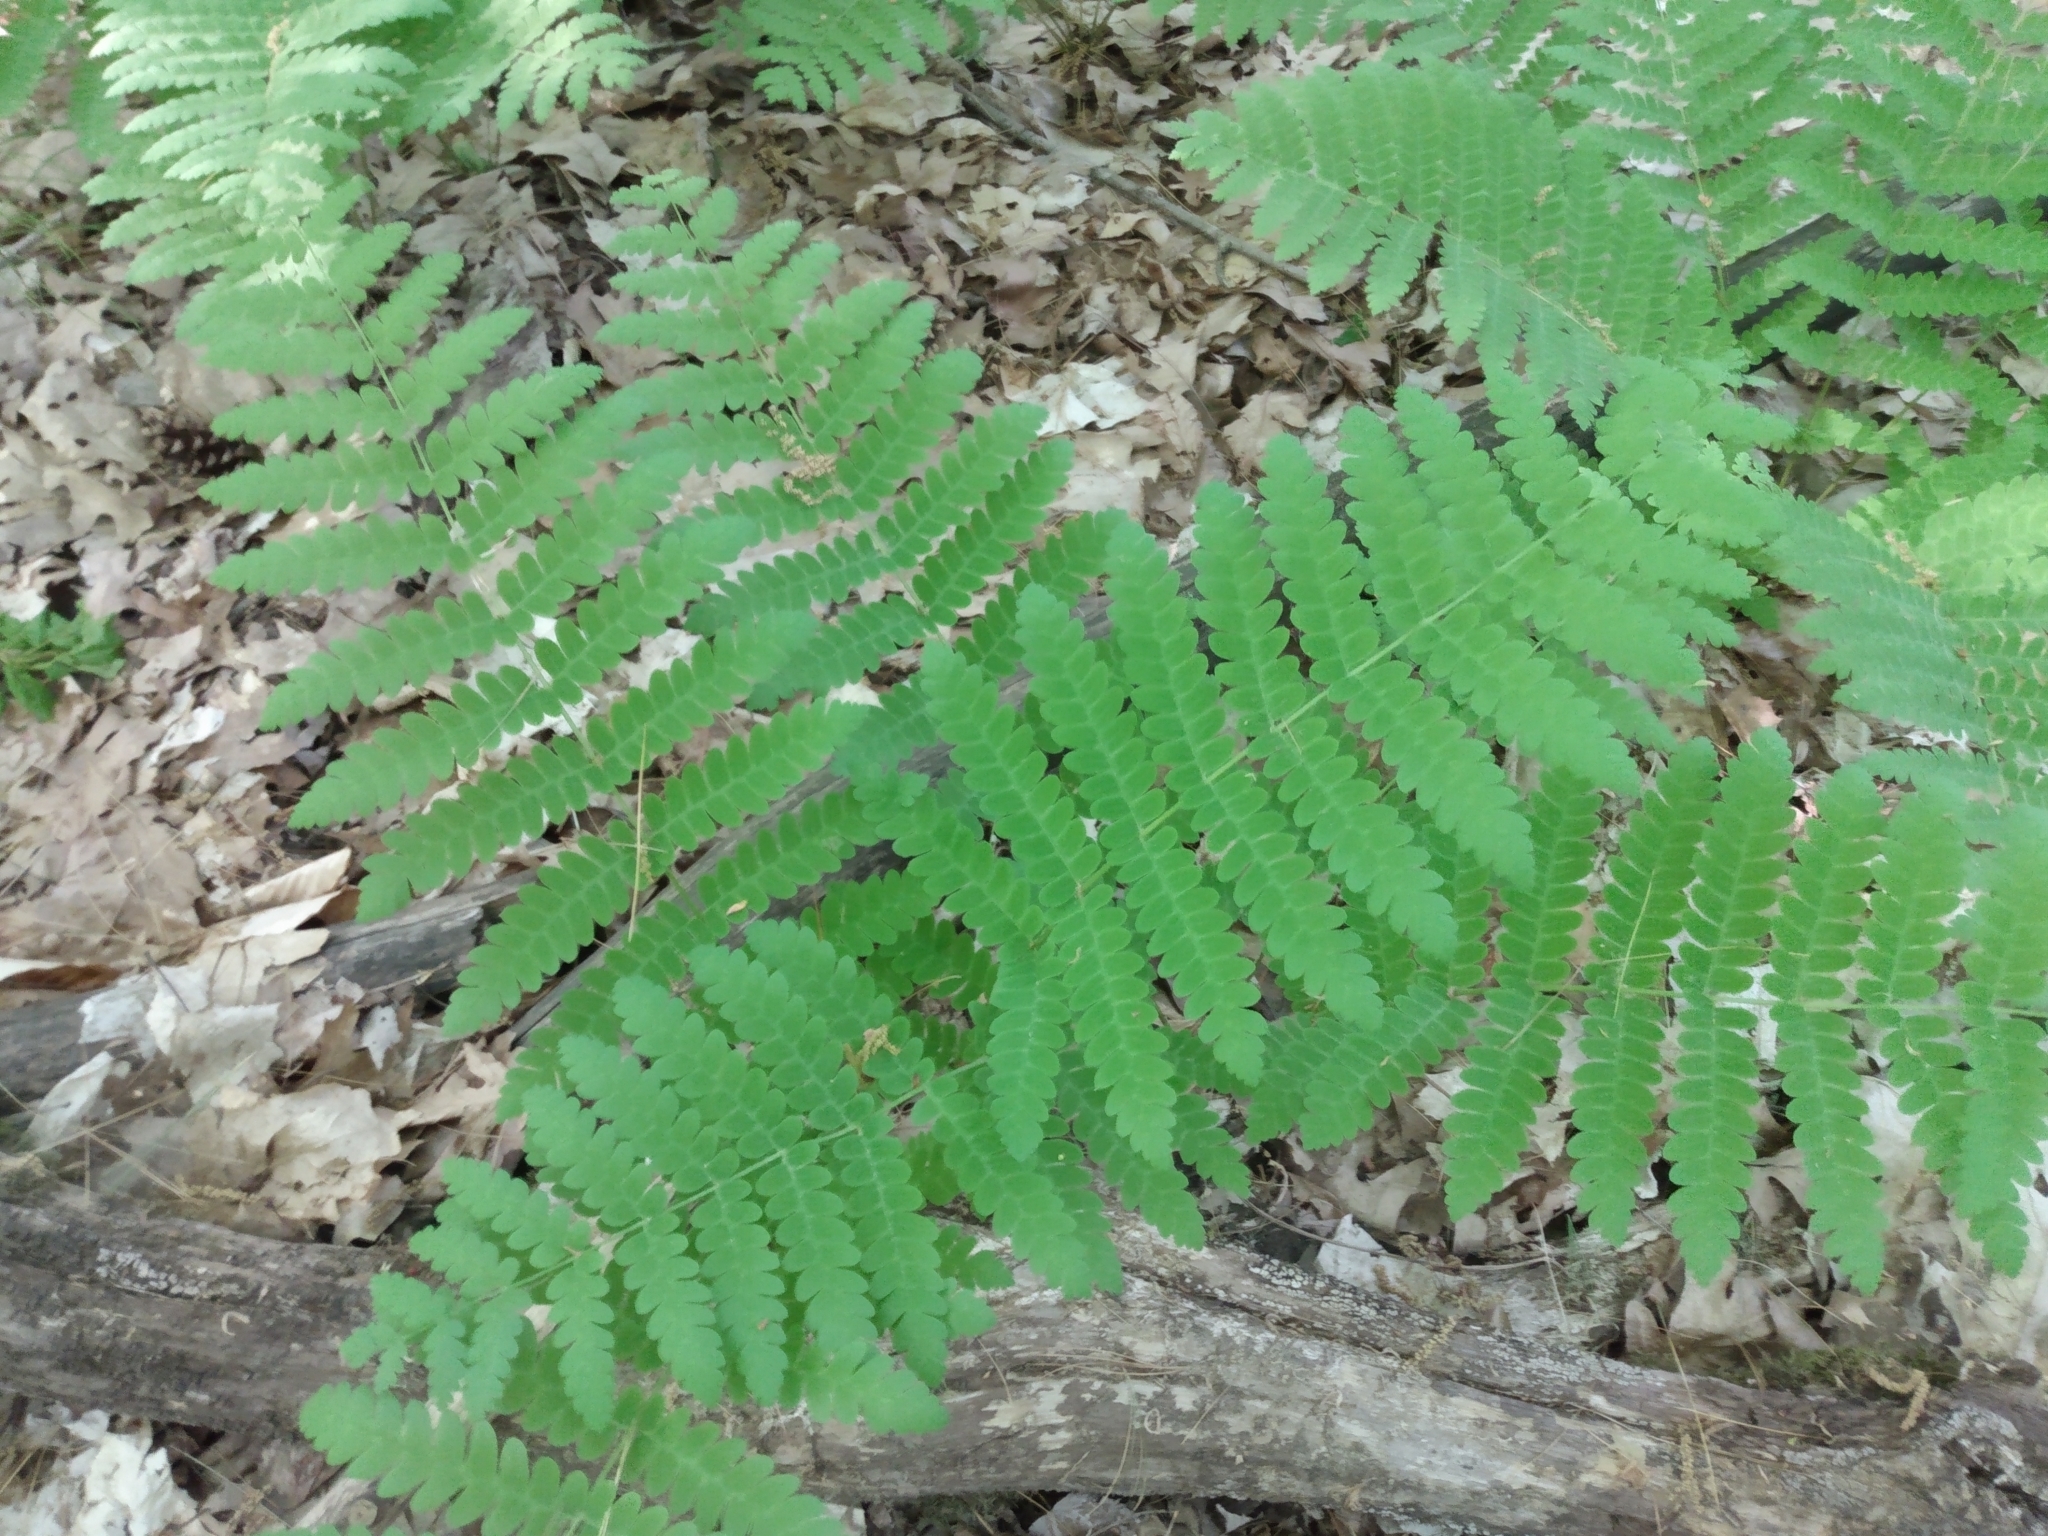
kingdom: Plantae
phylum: Tracheophyta
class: Polypodiopsida
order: Osmundales
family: Osmundaceae
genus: Claytosmunda
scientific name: Claytosmunda claytoniana
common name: Clayton's fern
